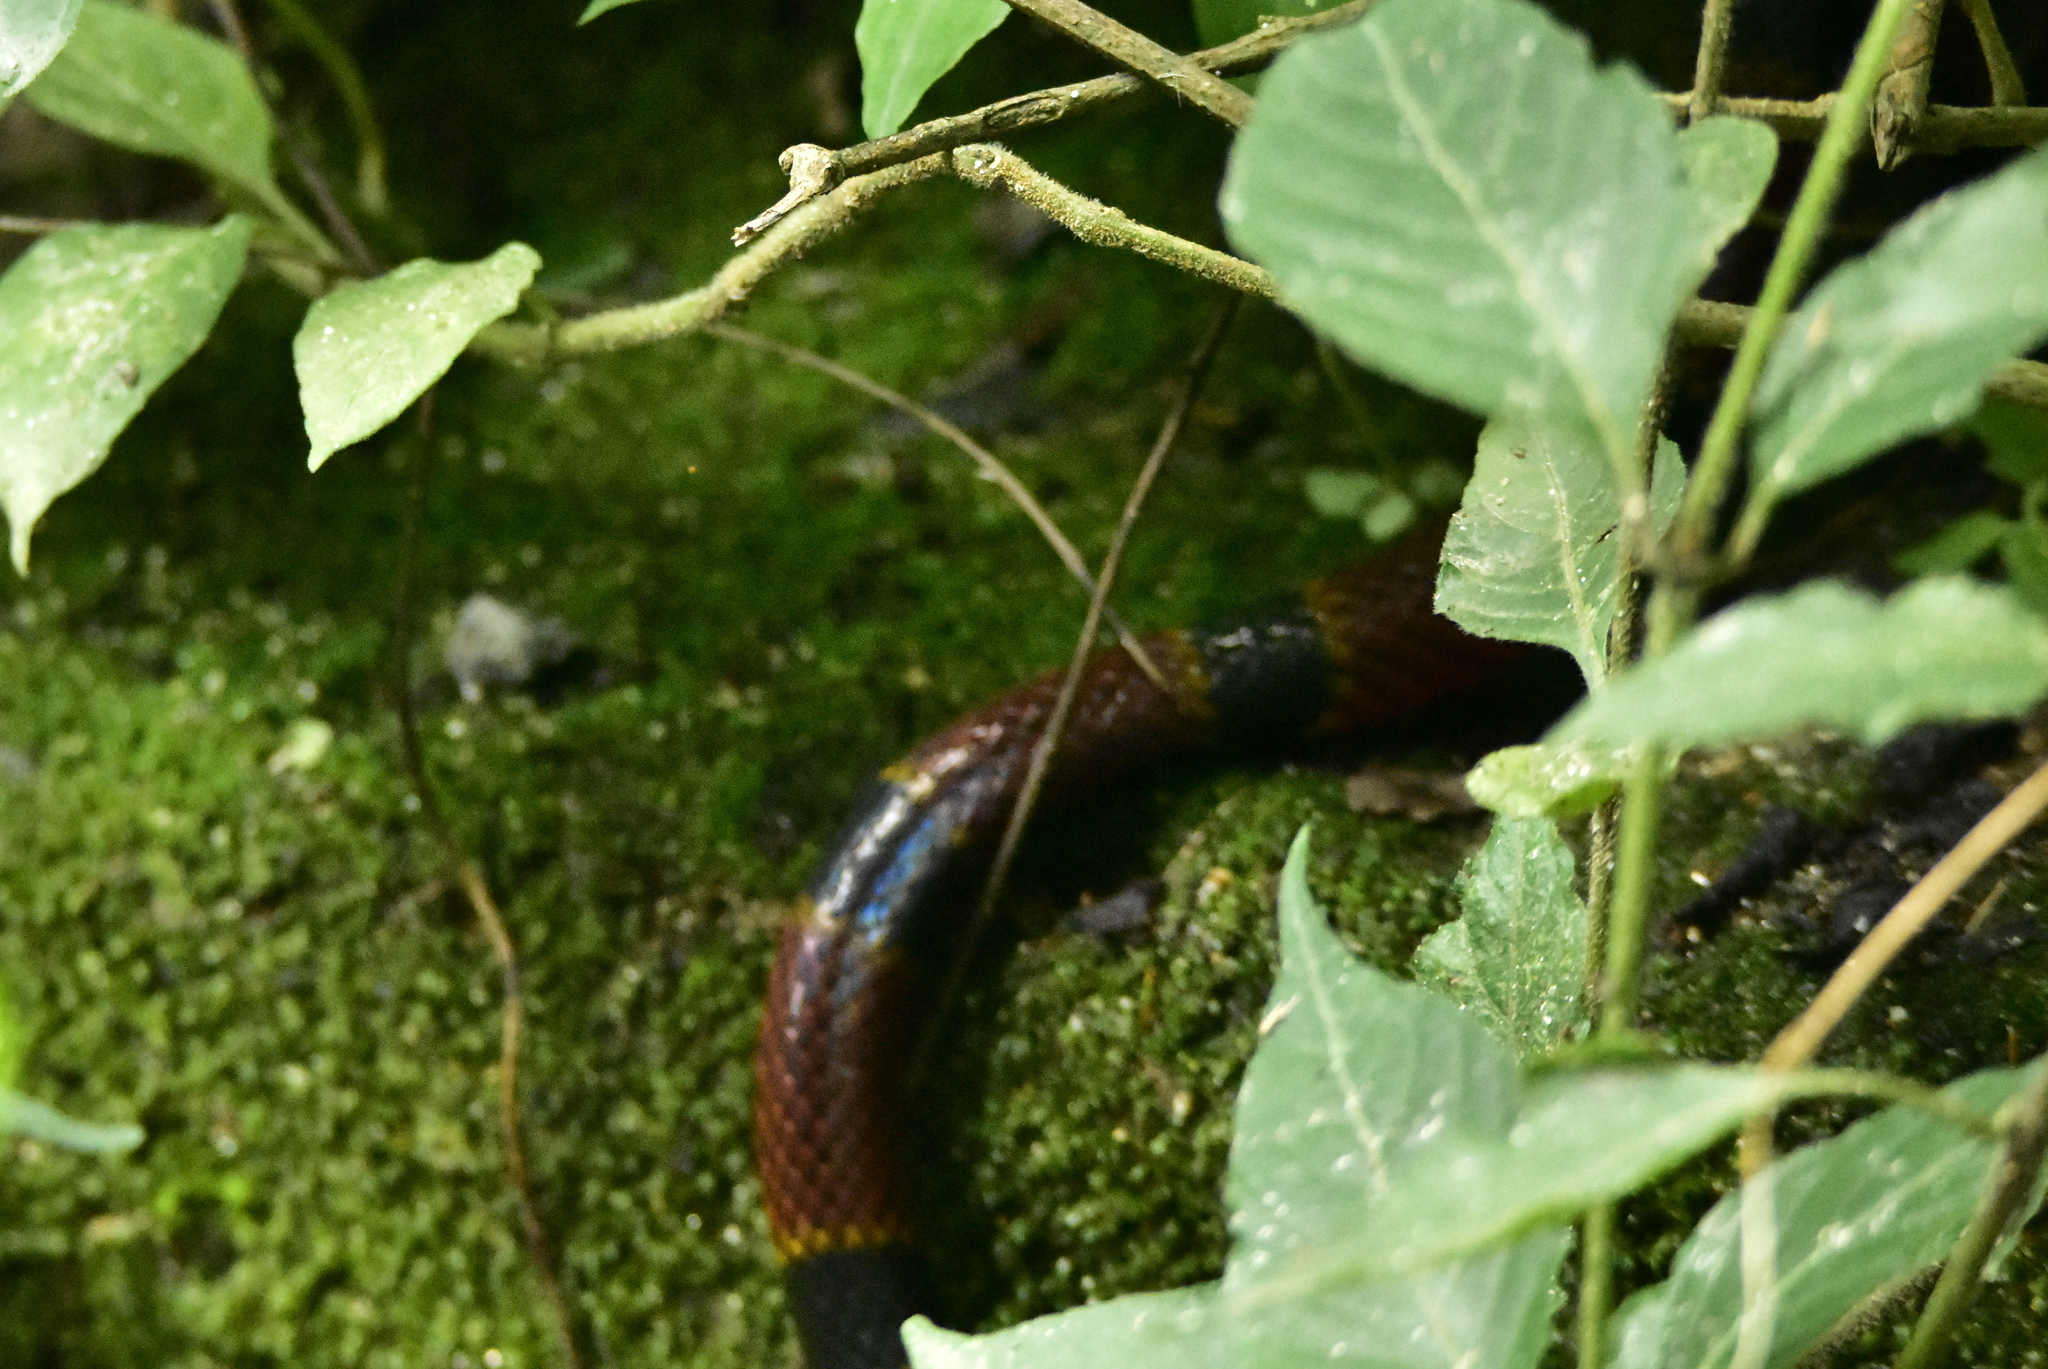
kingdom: Animalia
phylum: Chordata
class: Squamata
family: Elapidae
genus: Micrurus
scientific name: Micrurus browni
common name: Brown's coral snake
